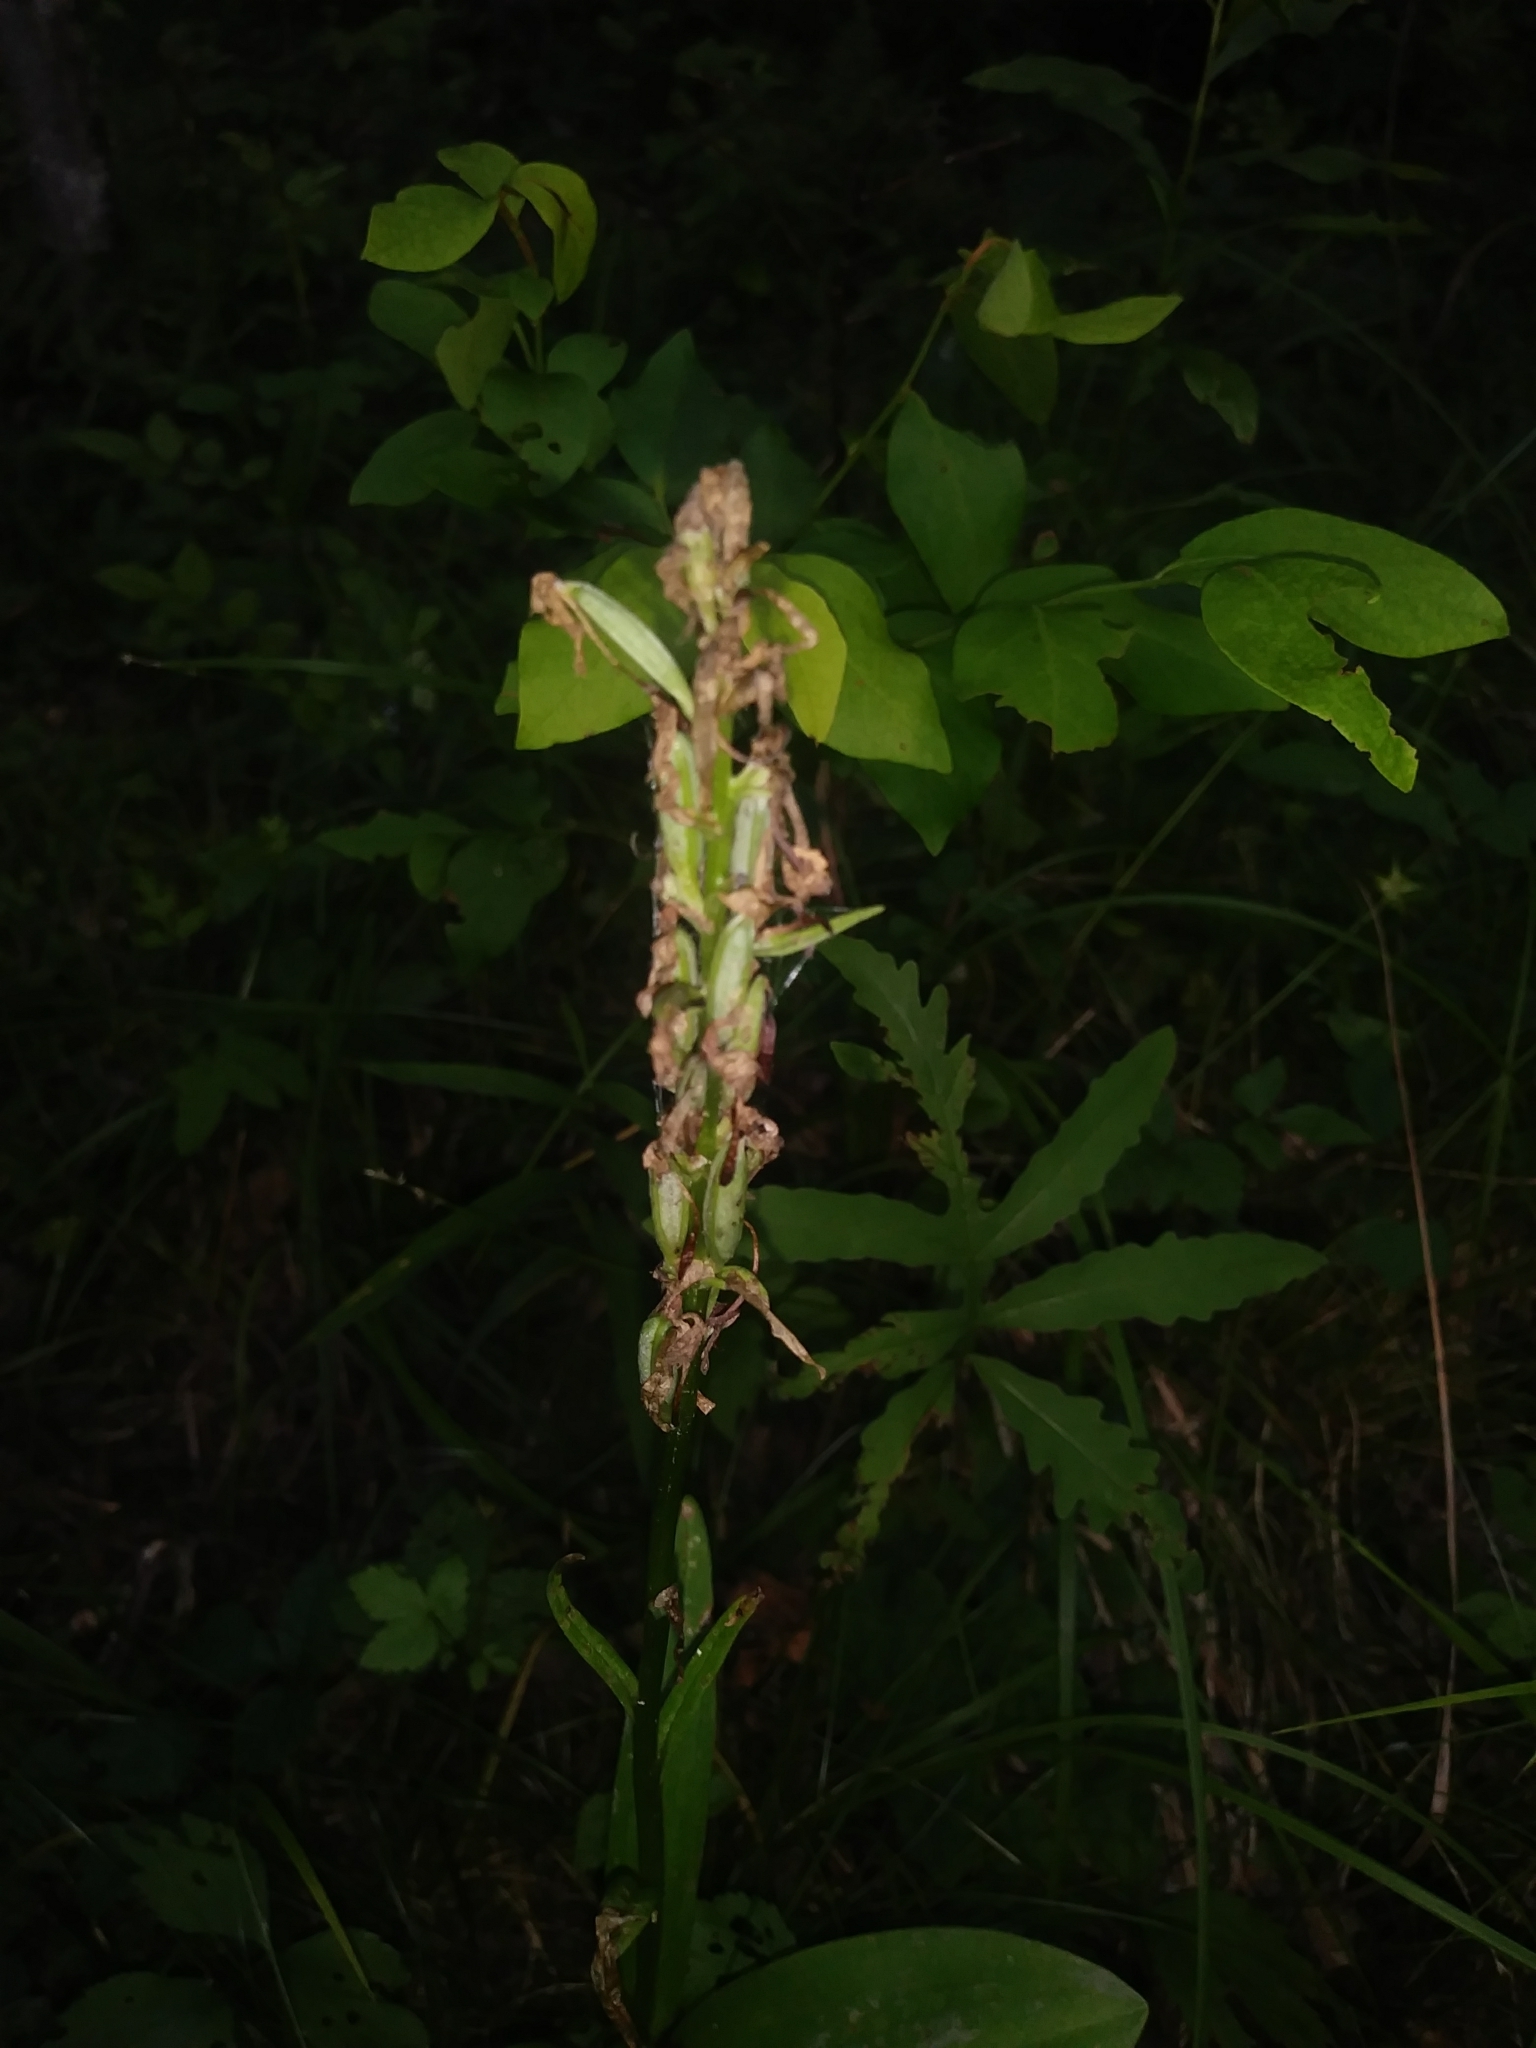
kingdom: Plantae
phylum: Tracheophyta
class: Liliopsida
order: Asparagales
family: Orchidaceae
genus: Platanthera
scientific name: Platanthera psycodes
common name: Lesser purple fringed orchid
